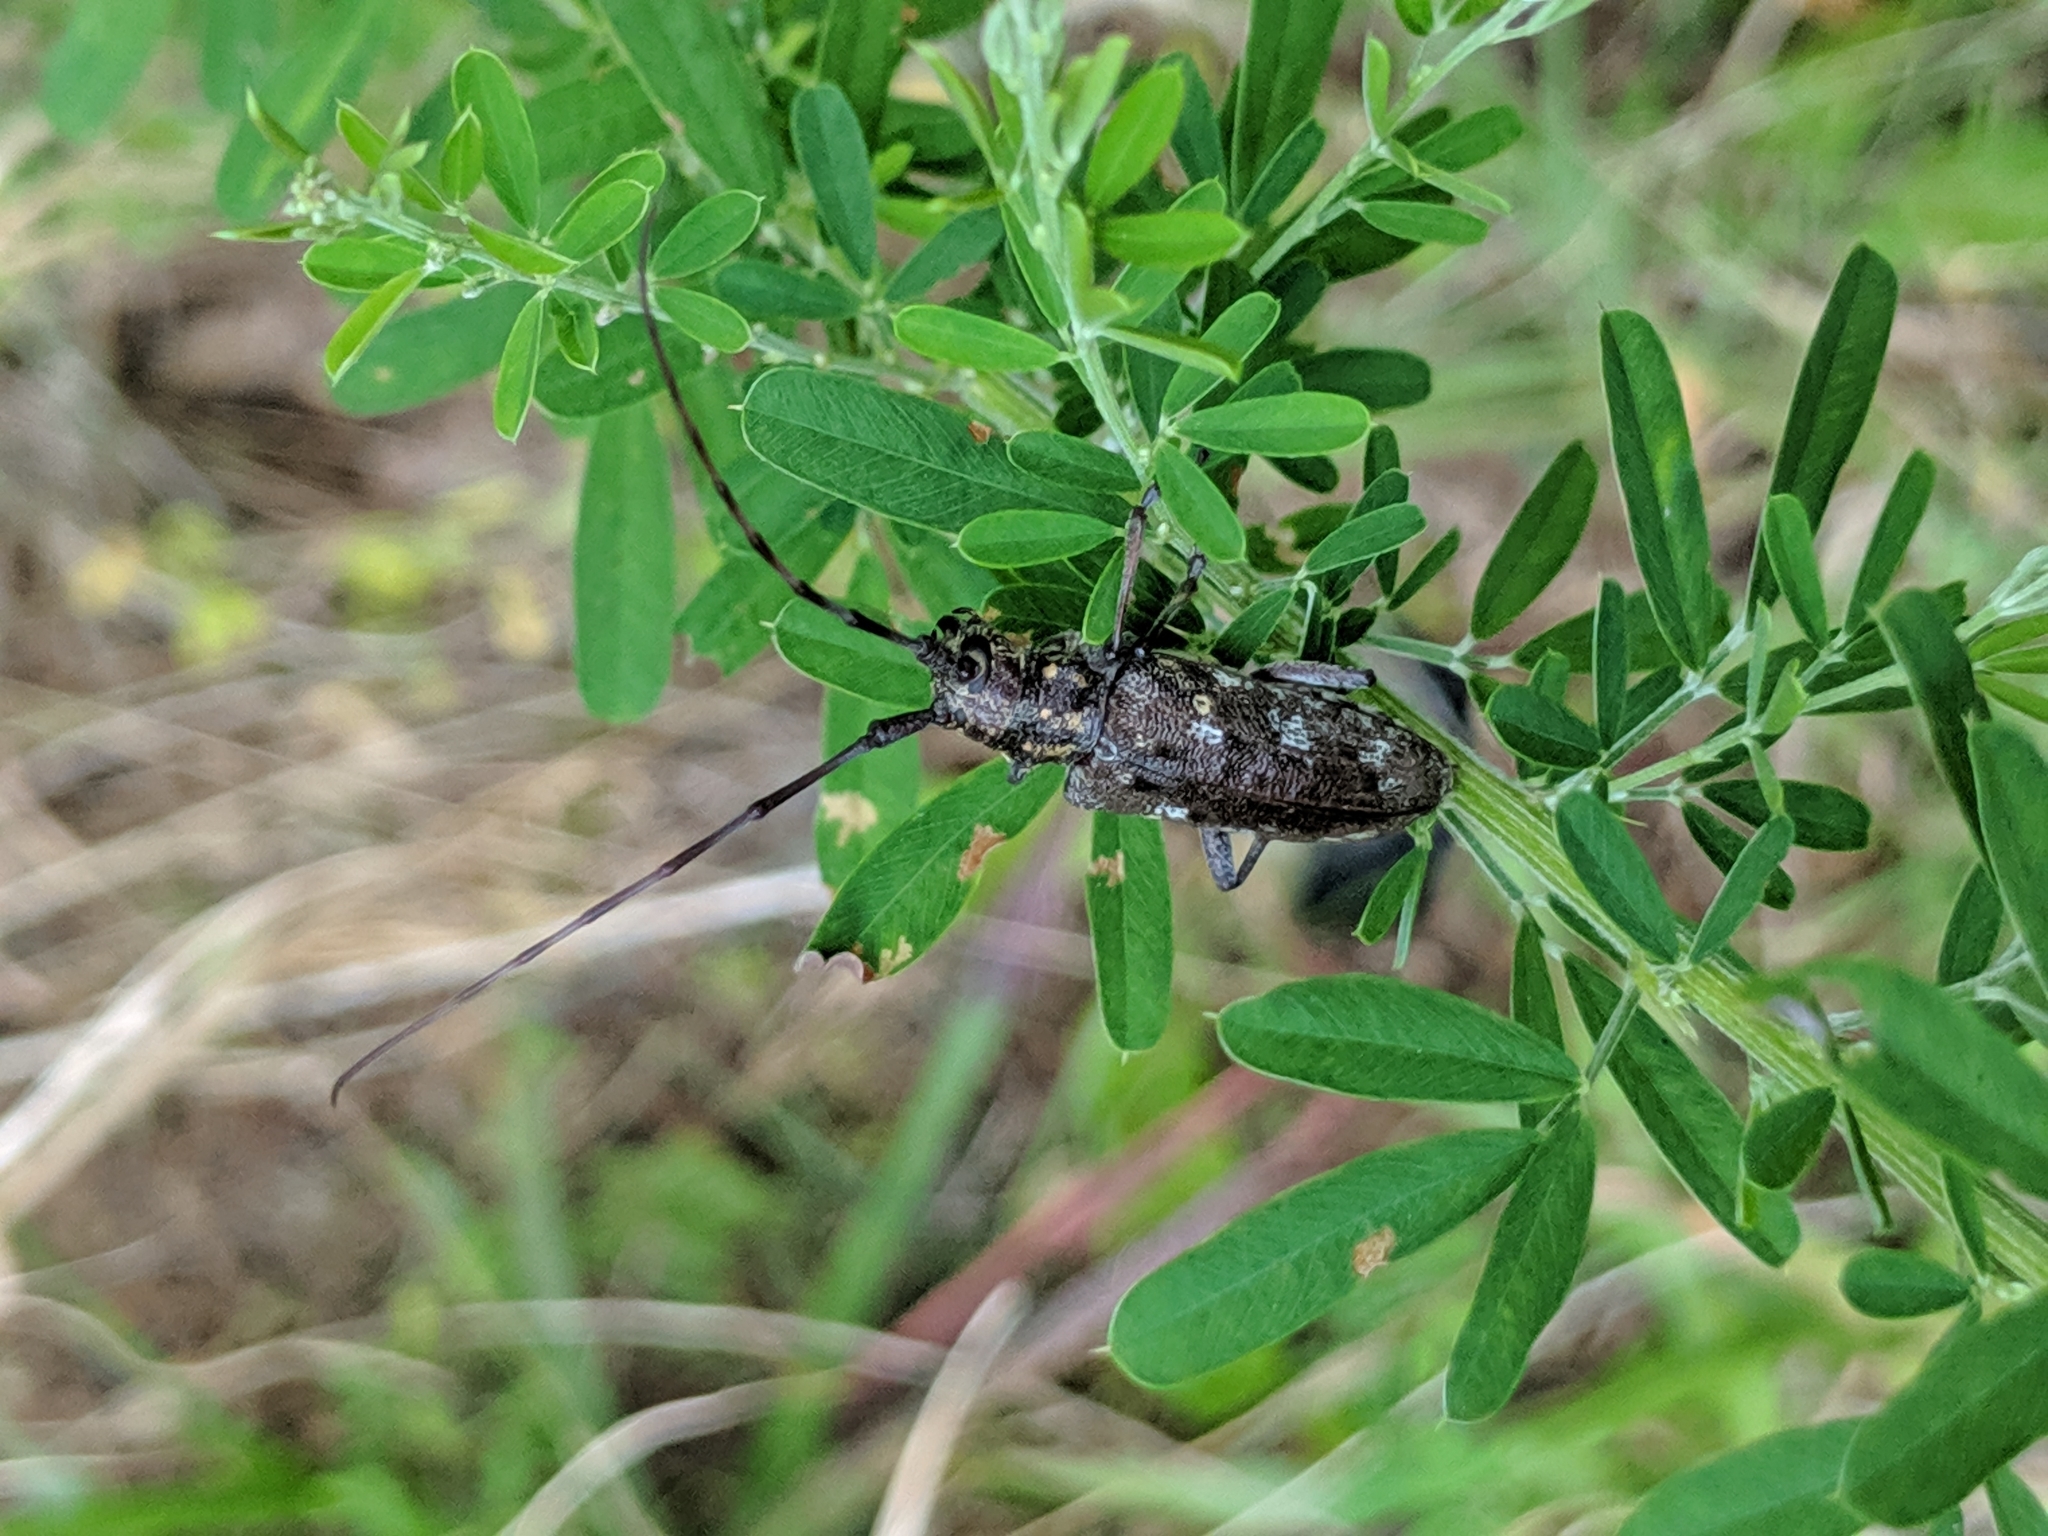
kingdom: Animalia
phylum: Arthropoda
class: Insecta
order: Coleoptera
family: Cerambycidae
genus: Monochamus
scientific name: Monochamus carolinensis
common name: Carolina pine sawyer
